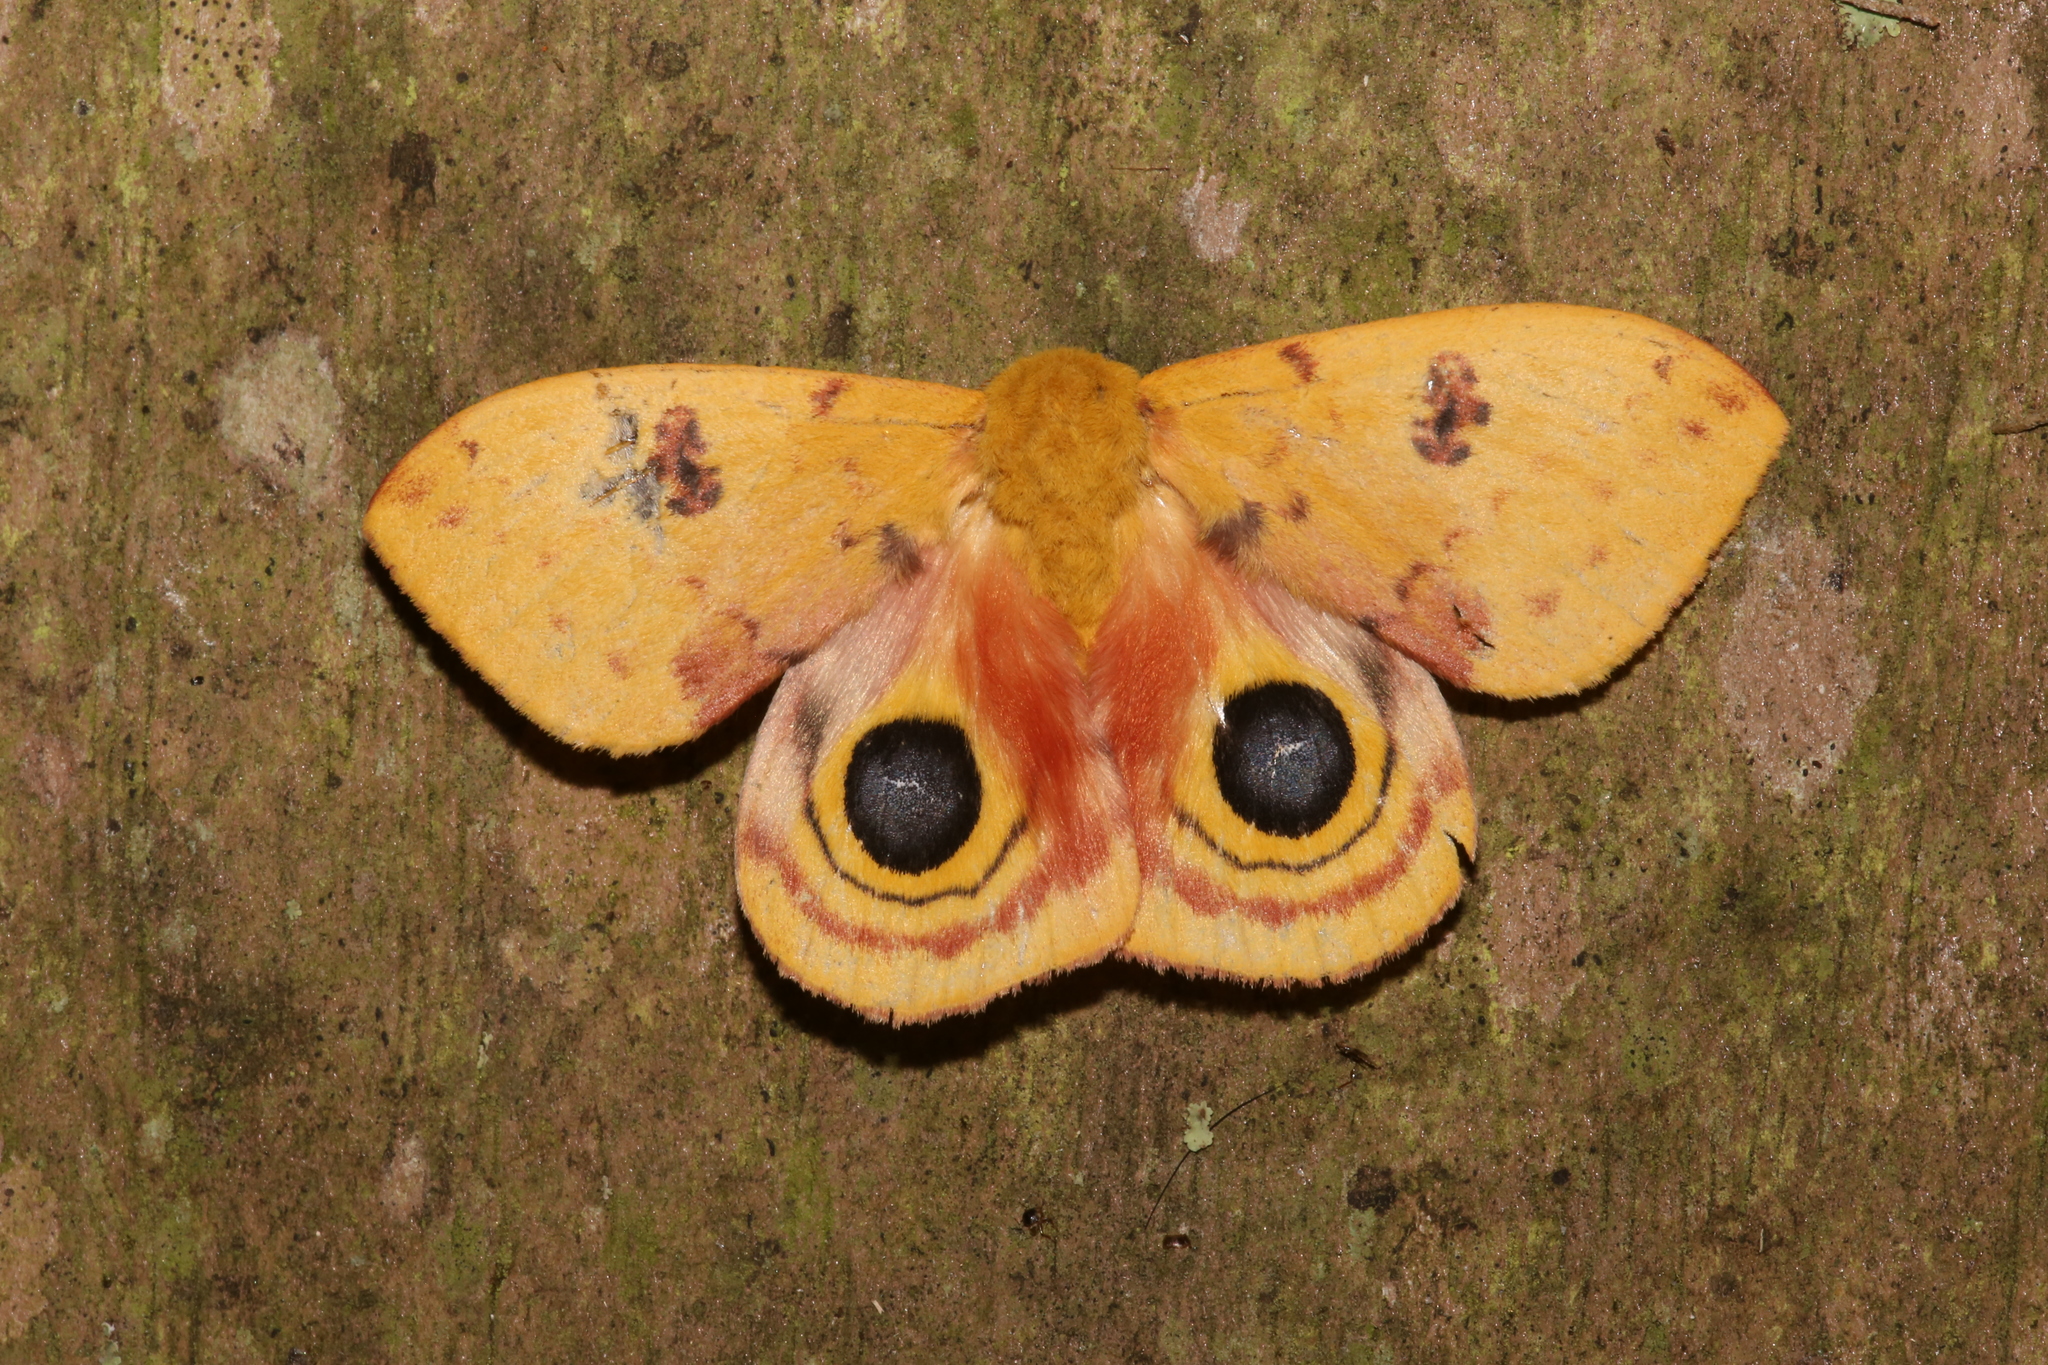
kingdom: Animalia
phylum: Arthropoda
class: Insecta
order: Lepidoptera
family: Saturniidae
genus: Automeris
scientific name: Automeris io
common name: Io moth
